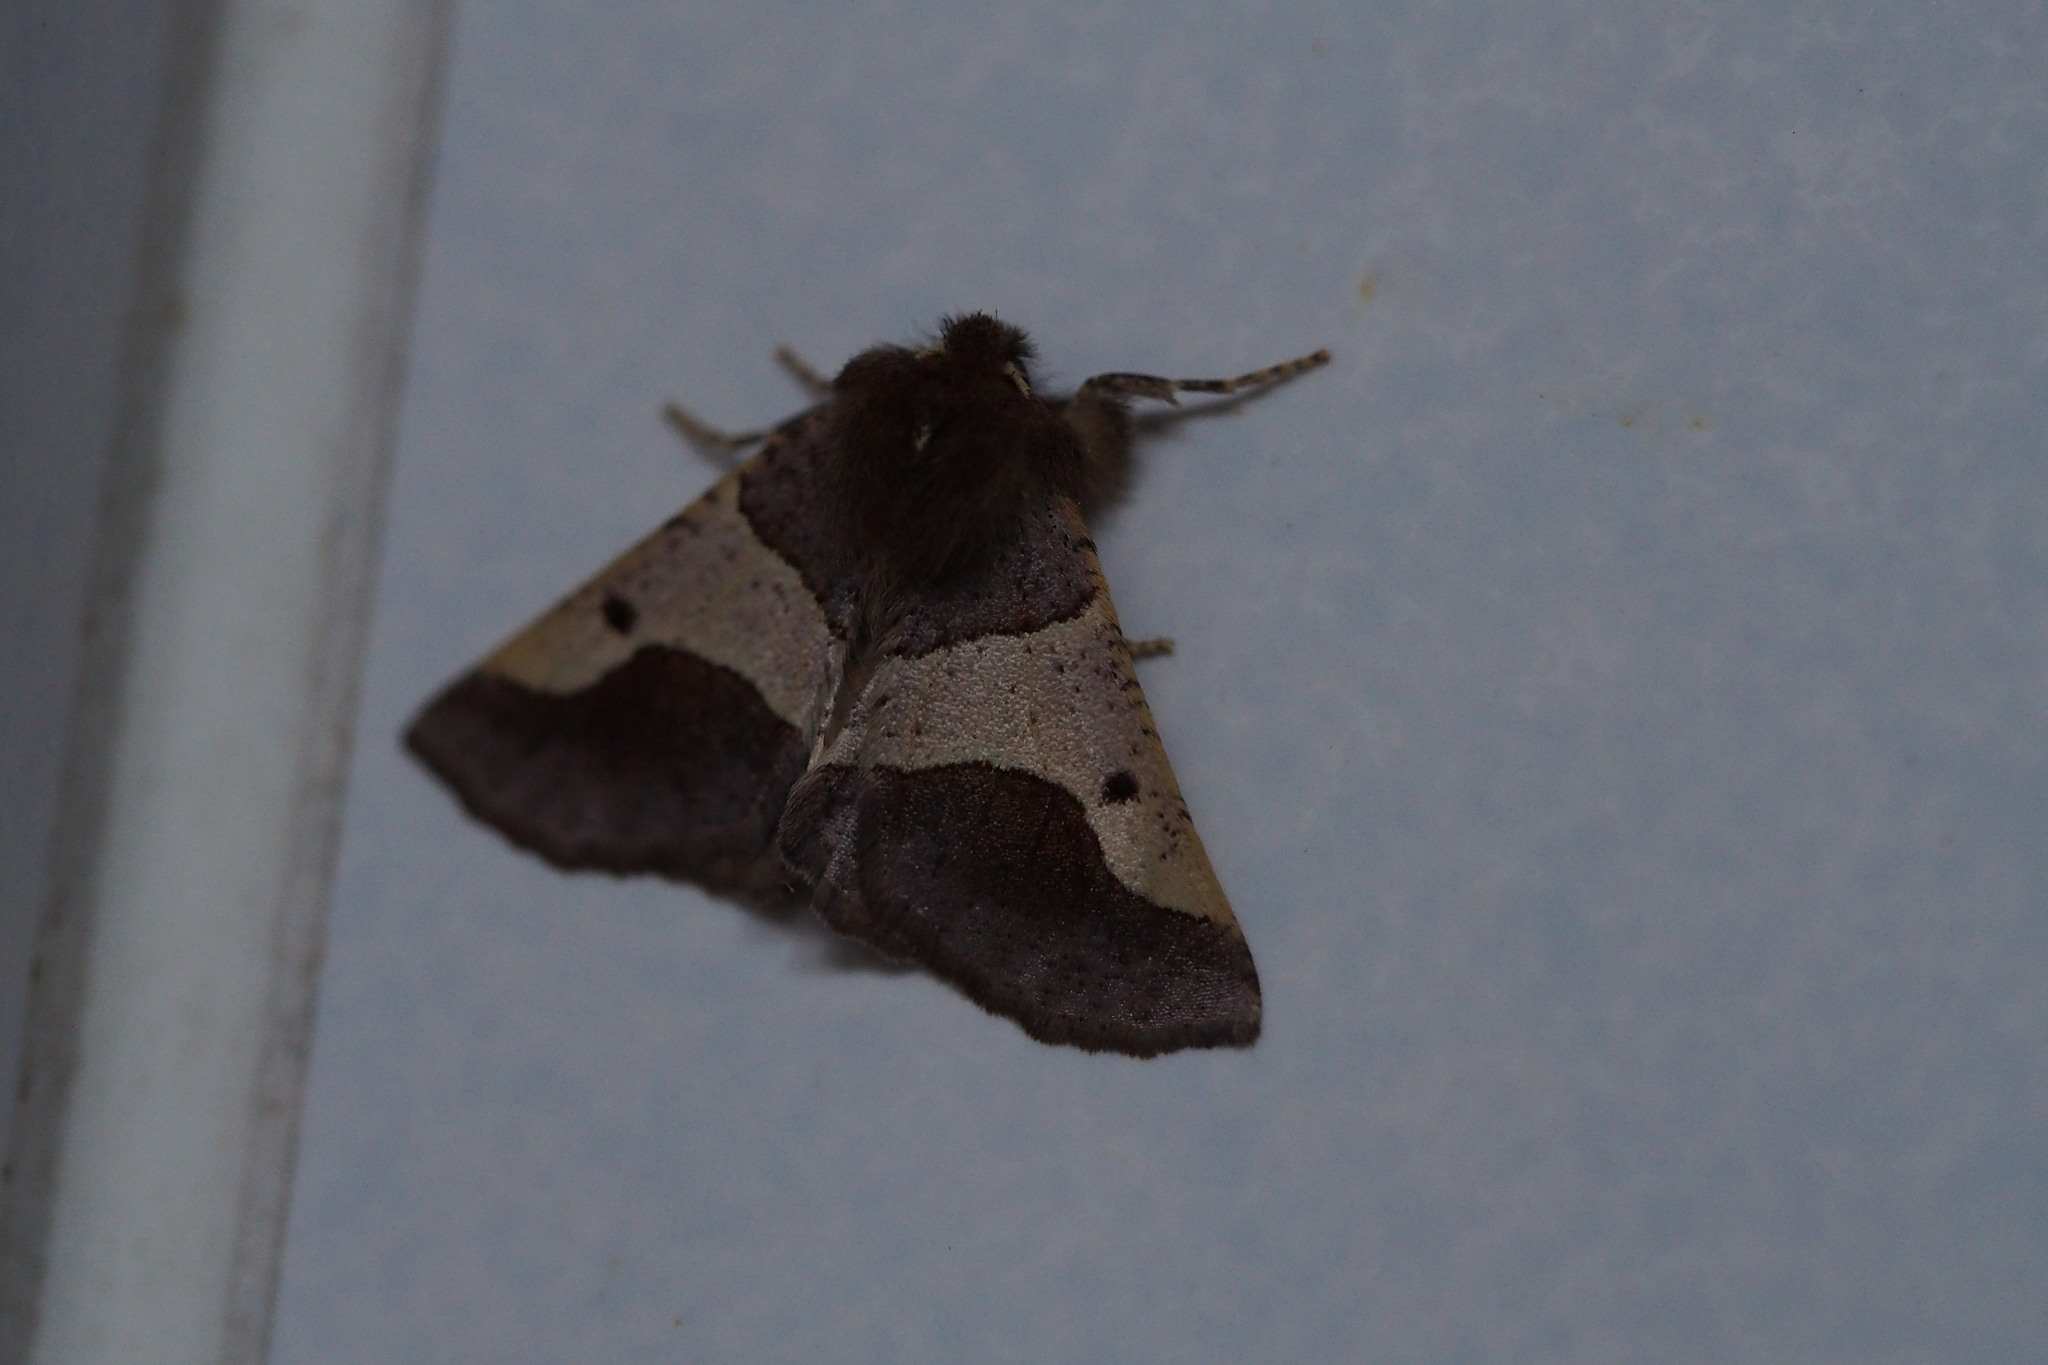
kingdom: Animalia
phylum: Arthropoda
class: Insecta
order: Lepidoptera
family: Geometridae
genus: Wilemania
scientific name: Wilemania nitobei
